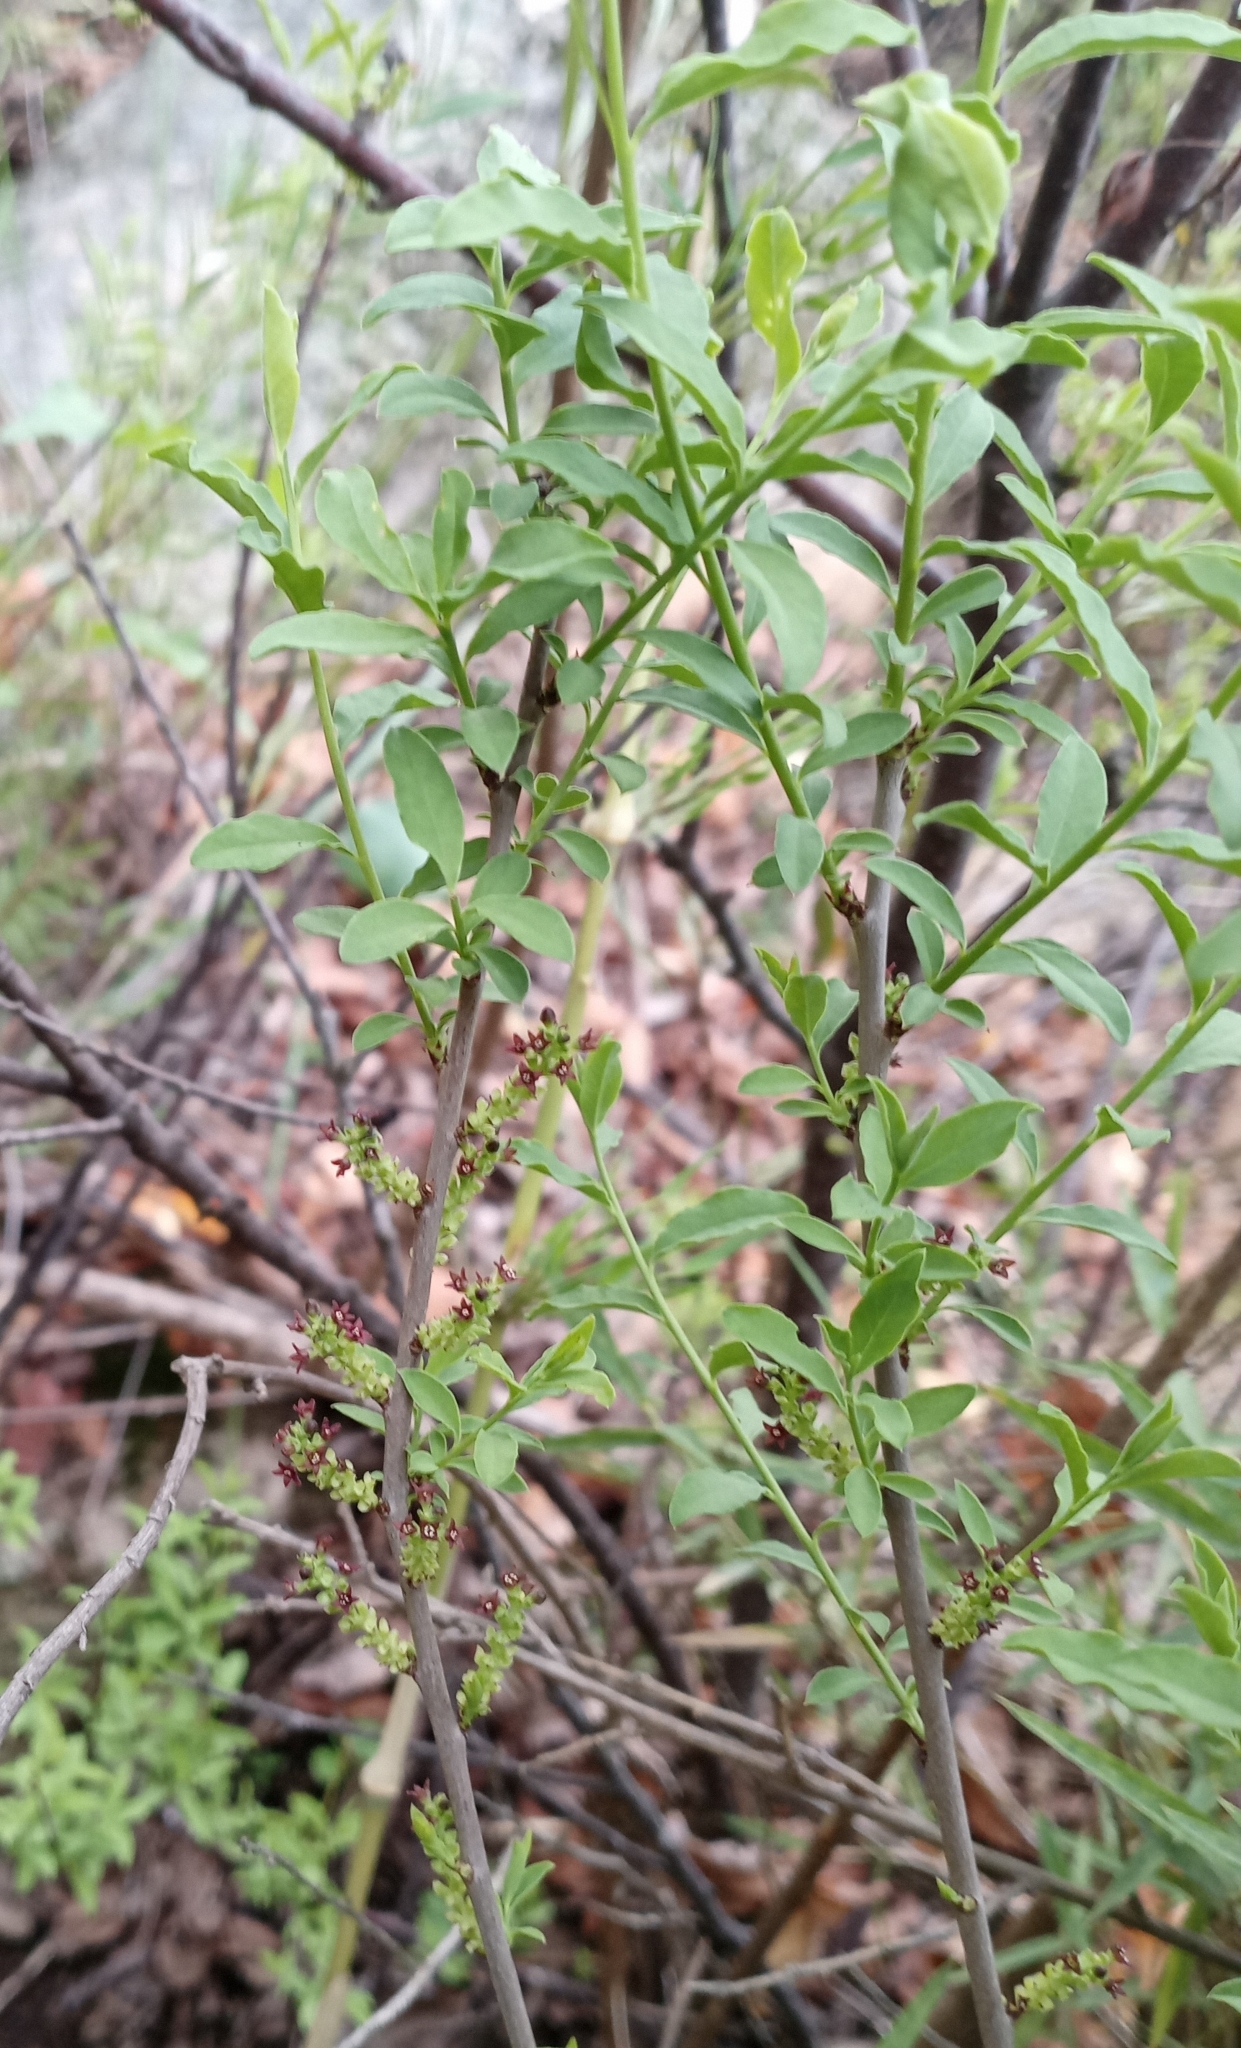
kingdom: Plantae
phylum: Tracheophyta
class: Magnoliopsida
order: Santalales
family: Santalaceae
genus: Myoschilos
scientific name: Myoschilos oblongum
